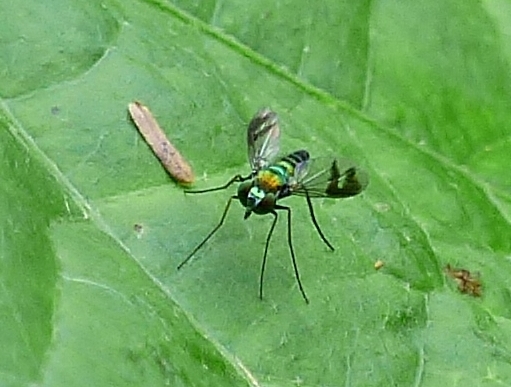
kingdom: Animalia
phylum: Arthropoda
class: Insecta
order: Diptera
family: Dolichopodidae
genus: Condylostylus
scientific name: Condylostylus quadricolor
